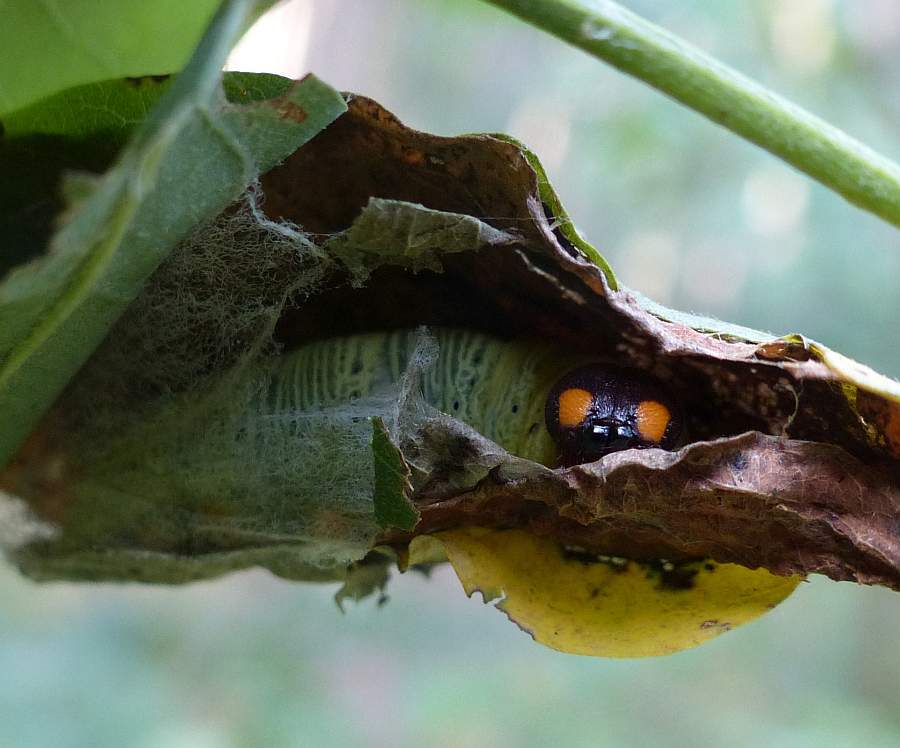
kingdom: Animalia
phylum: Arthropoda
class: Insecta
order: Lepidoptera
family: Hesperiidae
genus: Epargyreus
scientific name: Epargyreus clarus
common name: Silver-spotted skipper
